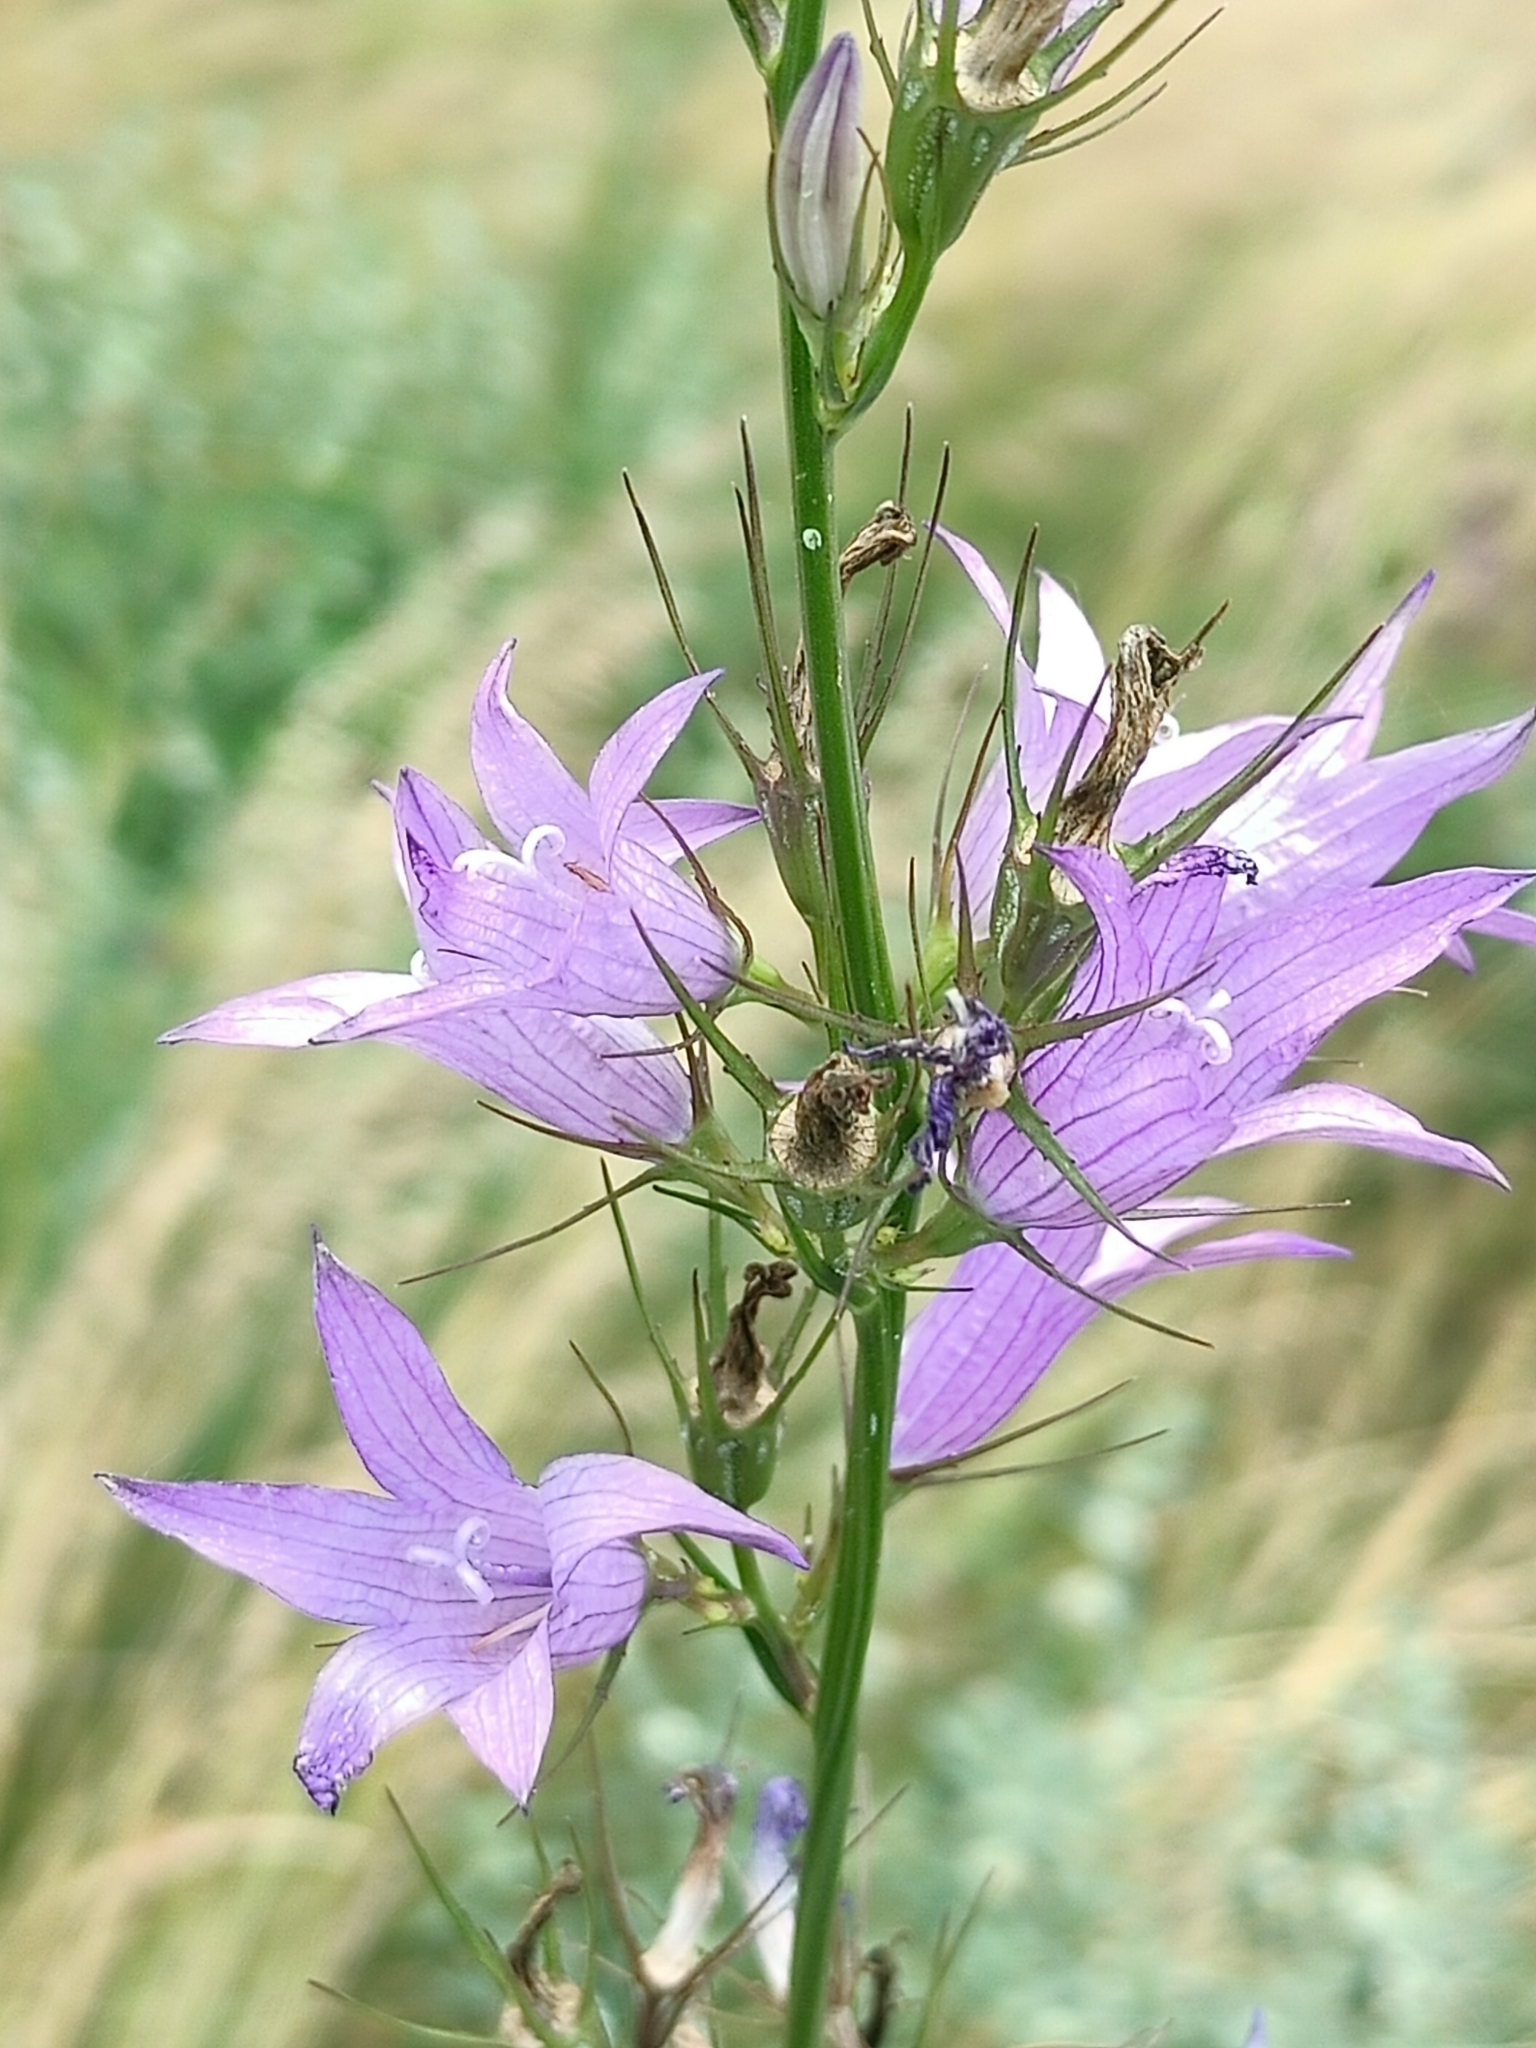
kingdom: Plantae
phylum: Tracheophyta
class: Magnoliopsida
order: Asterales
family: Campanulaceae
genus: Campanula
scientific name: Campanula rapunculus
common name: Rampion bellflower
